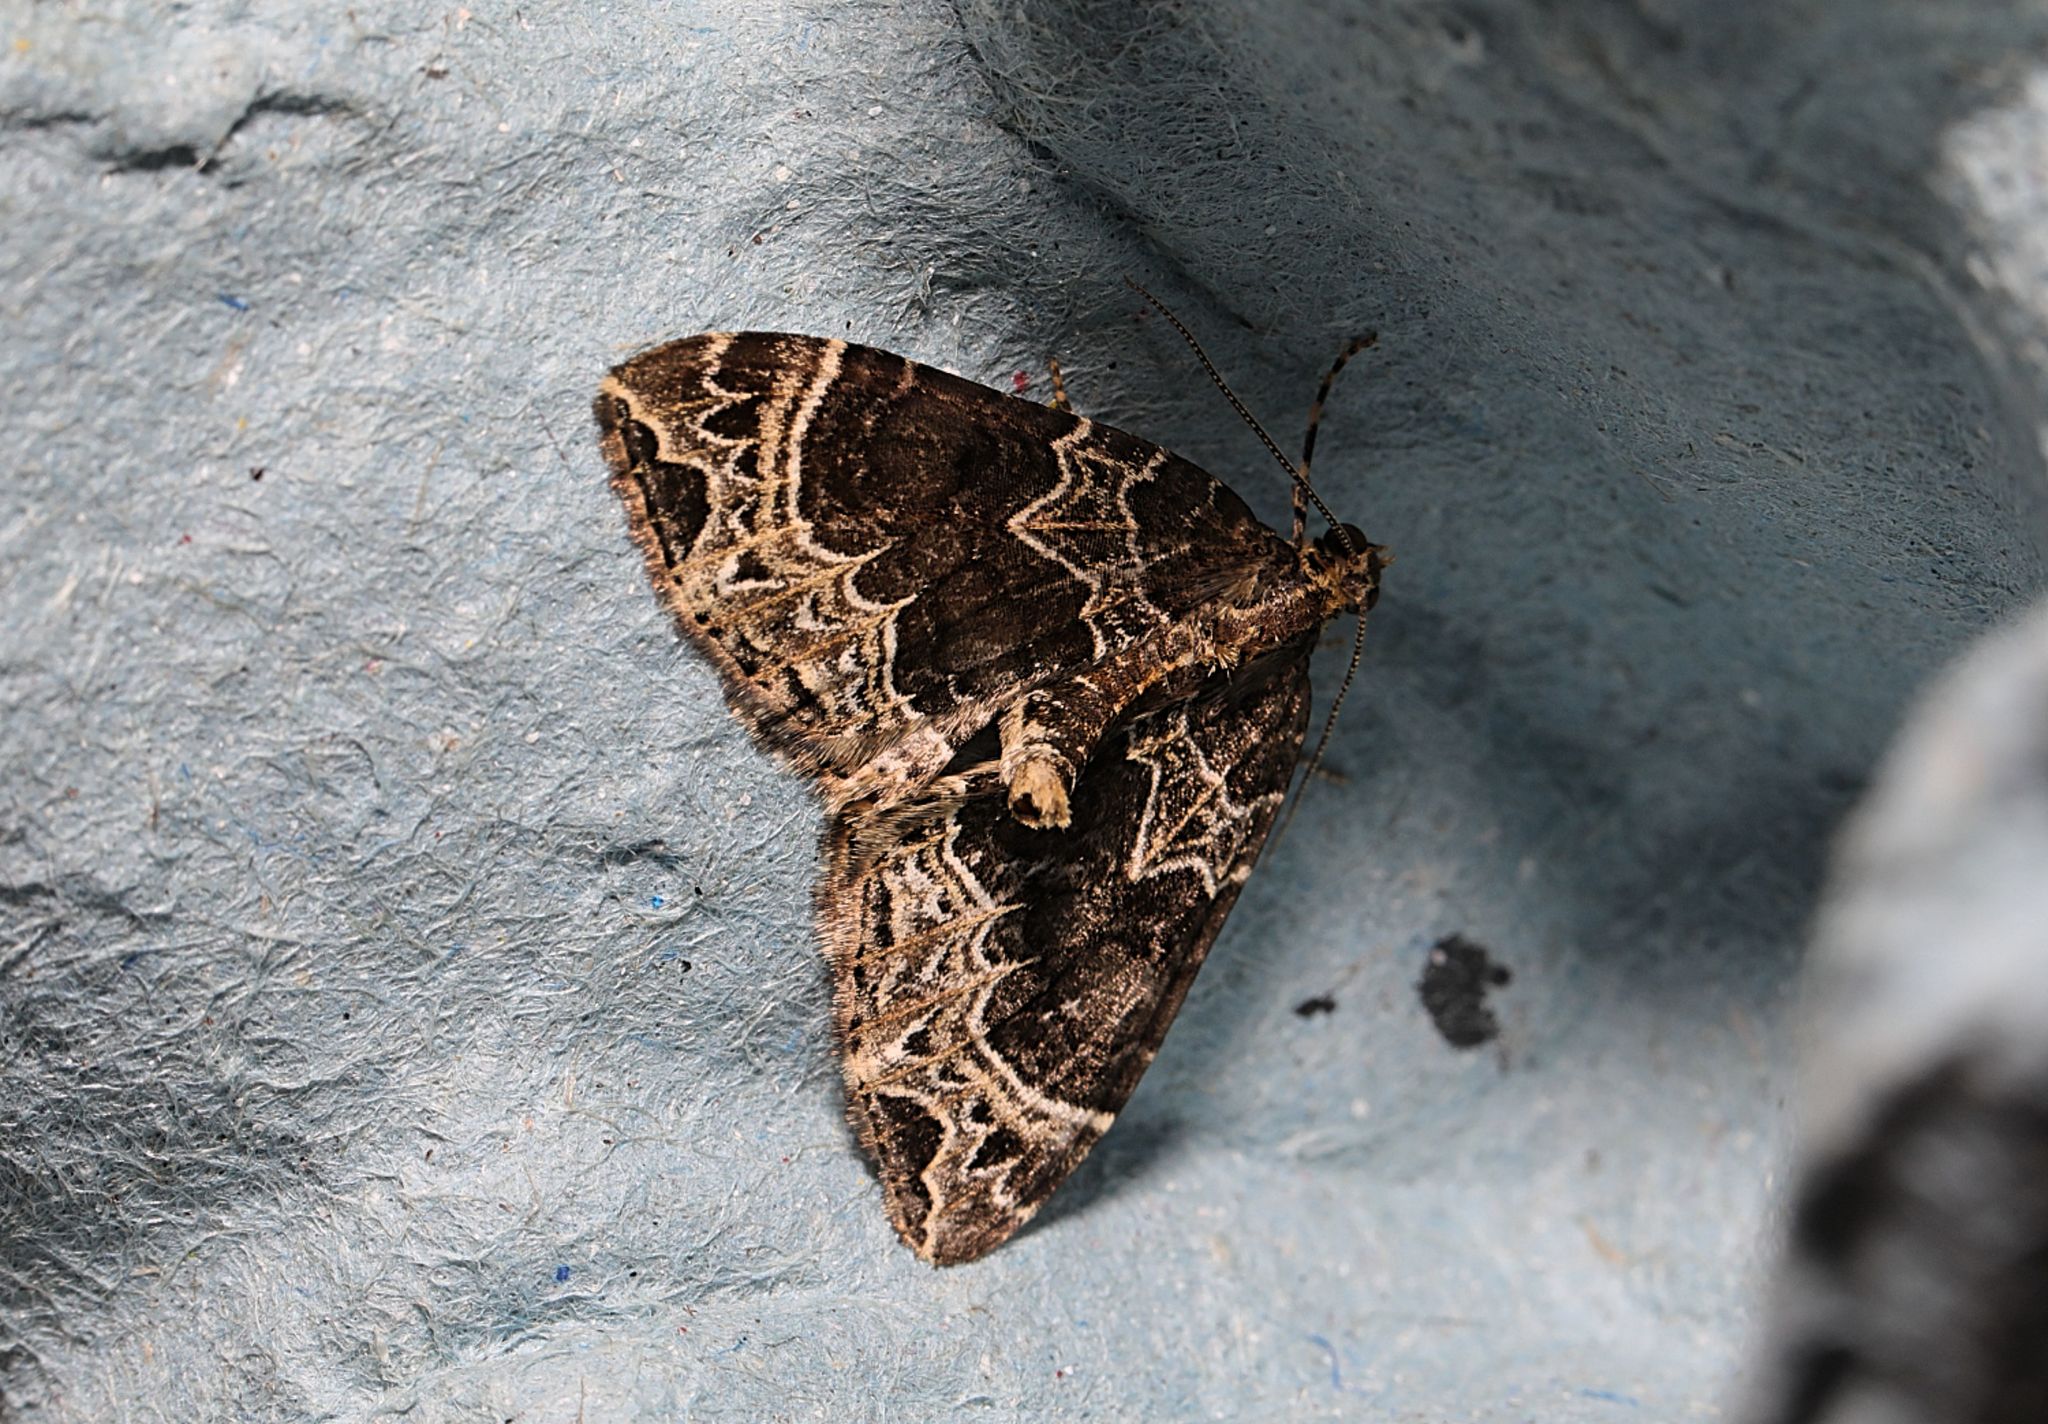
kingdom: Animalia
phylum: Arthropoda
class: Insecta
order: Lepidoptera
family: Geometridae
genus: Ecliptopera
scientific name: Ecliptopera silaceata
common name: Small phoenix
